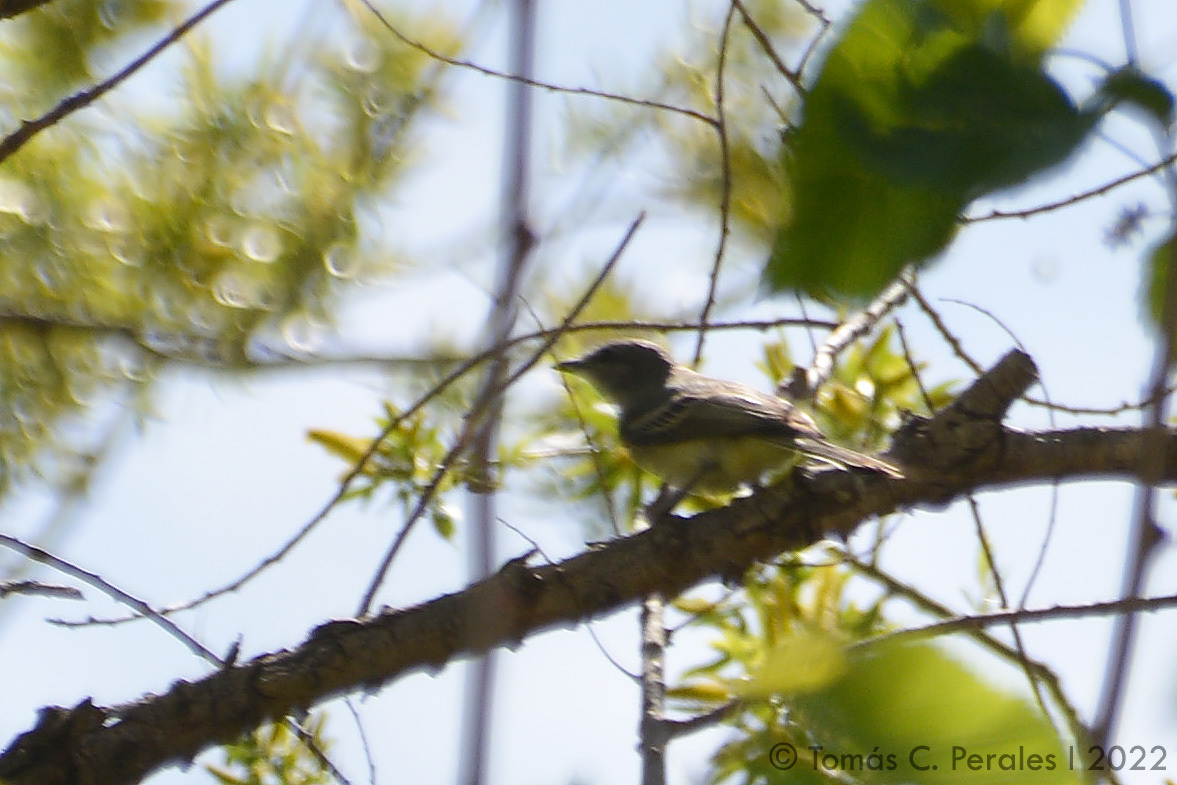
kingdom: Animalia
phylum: Chordata
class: Aves
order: Passeriformes
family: Tyrannidae
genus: Suiriri
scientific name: Suiriri suiriri
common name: Suiriri flycatcher
